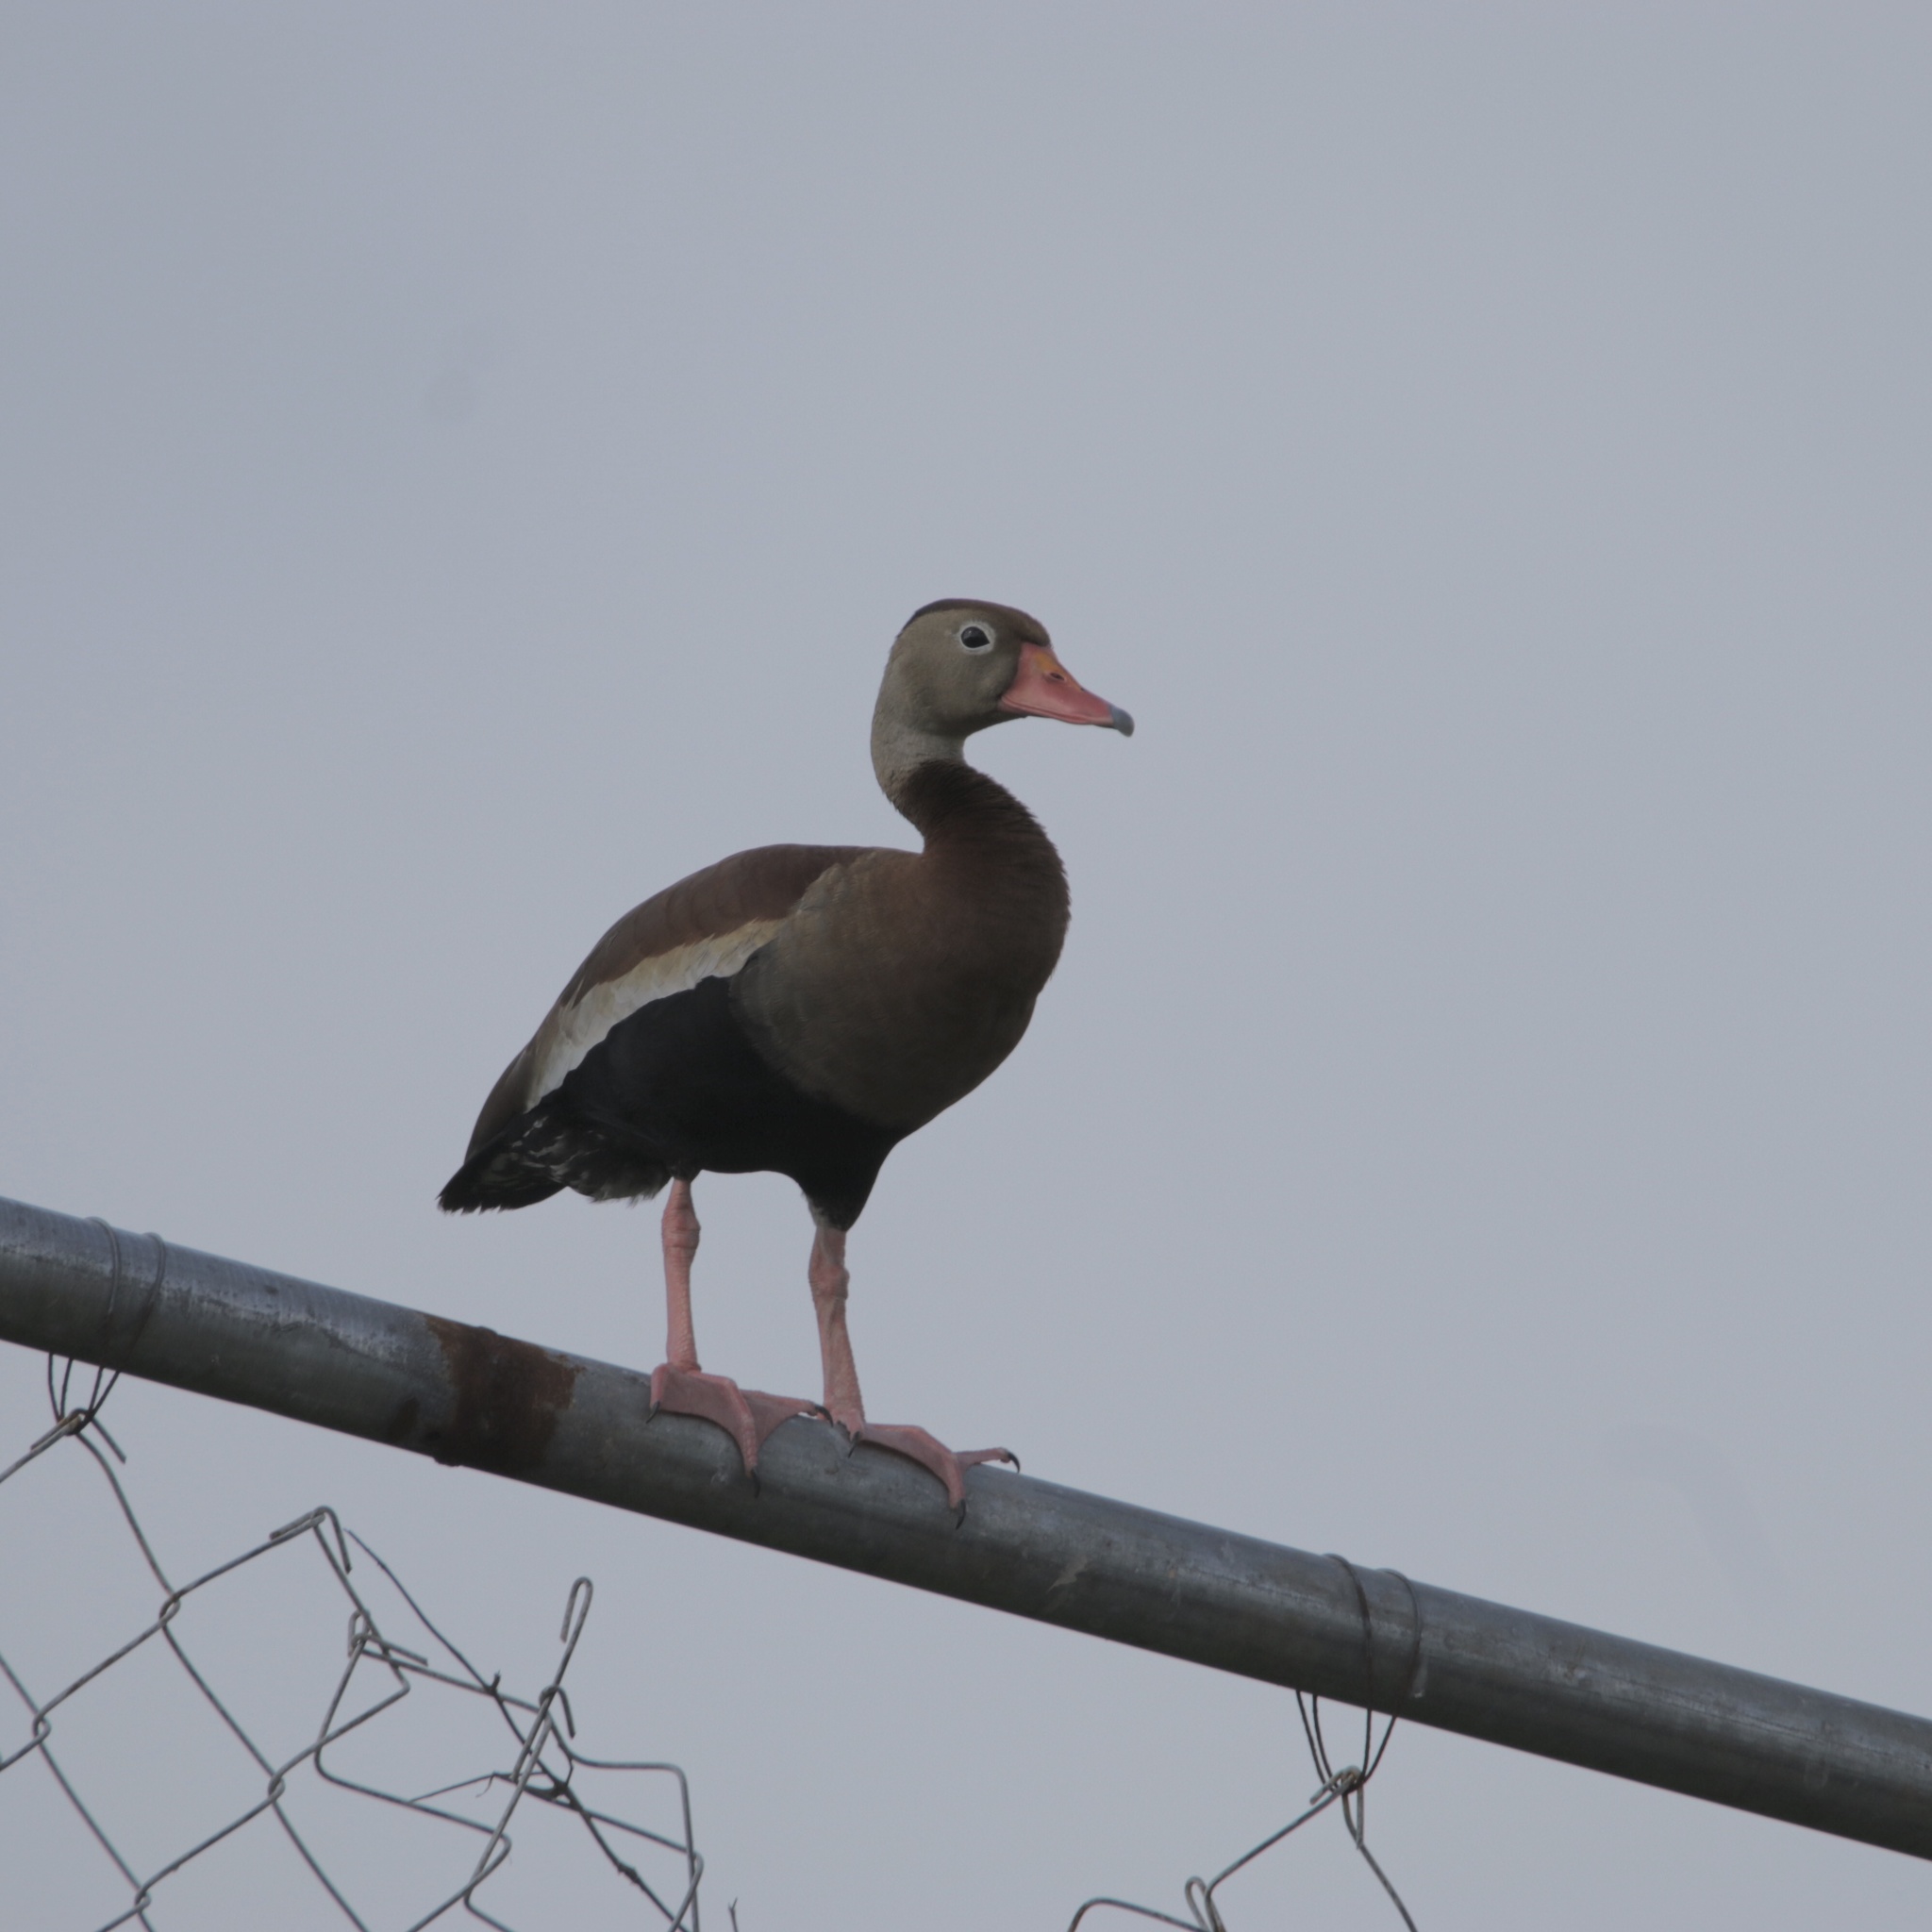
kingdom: Animalia
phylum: Chordata
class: Aves
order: Anseriformes
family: Anatidae
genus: Dendrocygna
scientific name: Dendrocygna autumnalis
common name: Black-bellied whistling duck
